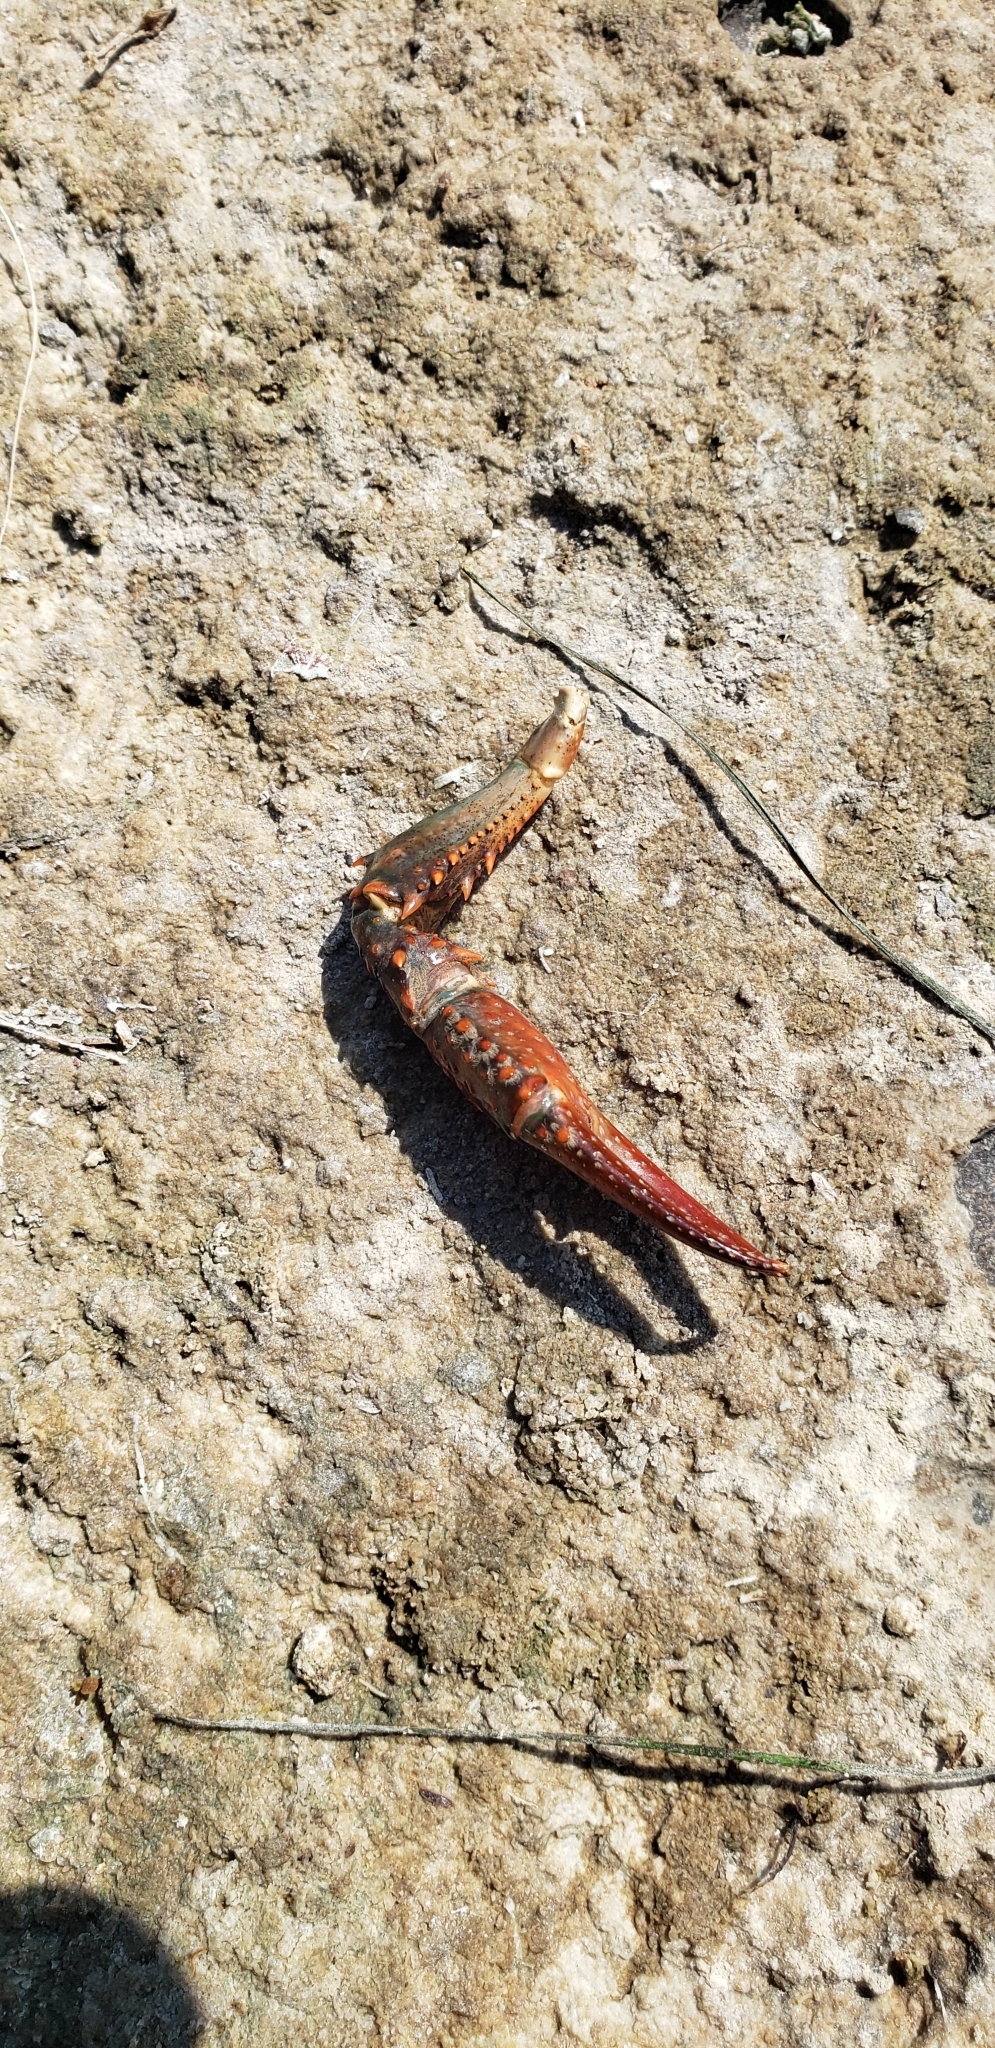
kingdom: Animalia
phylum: Arthropoda
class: Malacostraca
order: Decapoda
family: Cambaridae
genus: Procambarus
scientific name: Procambarus clarkii
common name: Red swamp crayfish
